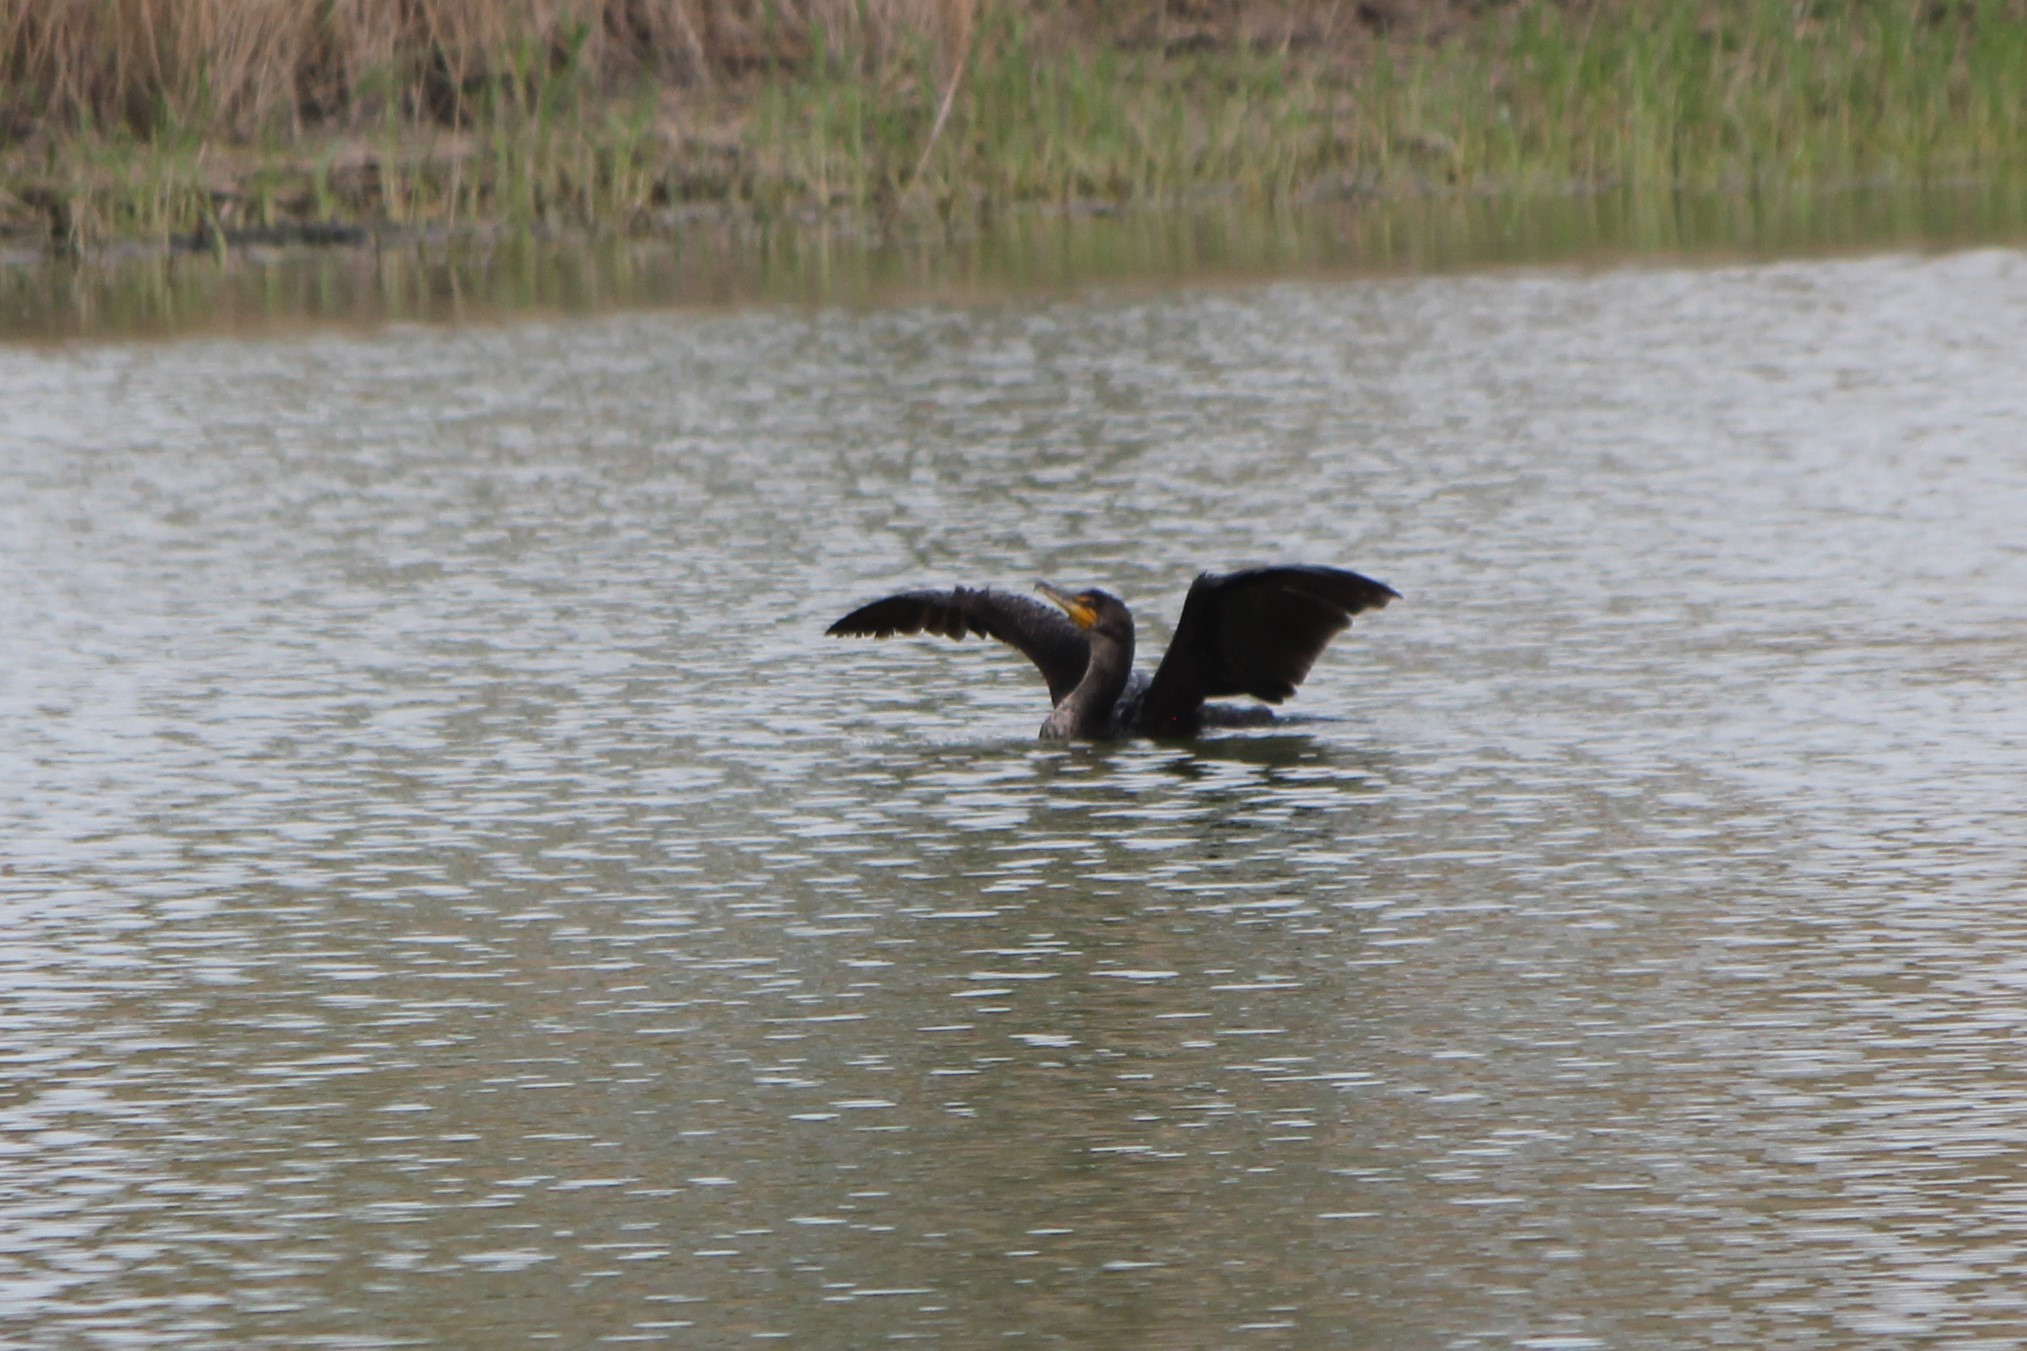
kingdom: Animalia
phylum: Chordata
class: Aves
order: Suliformes
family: Phalacrocoracidae
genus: Phalacrocorax
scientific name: Phalacrocorax auritus
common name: Double-crested cormorant
